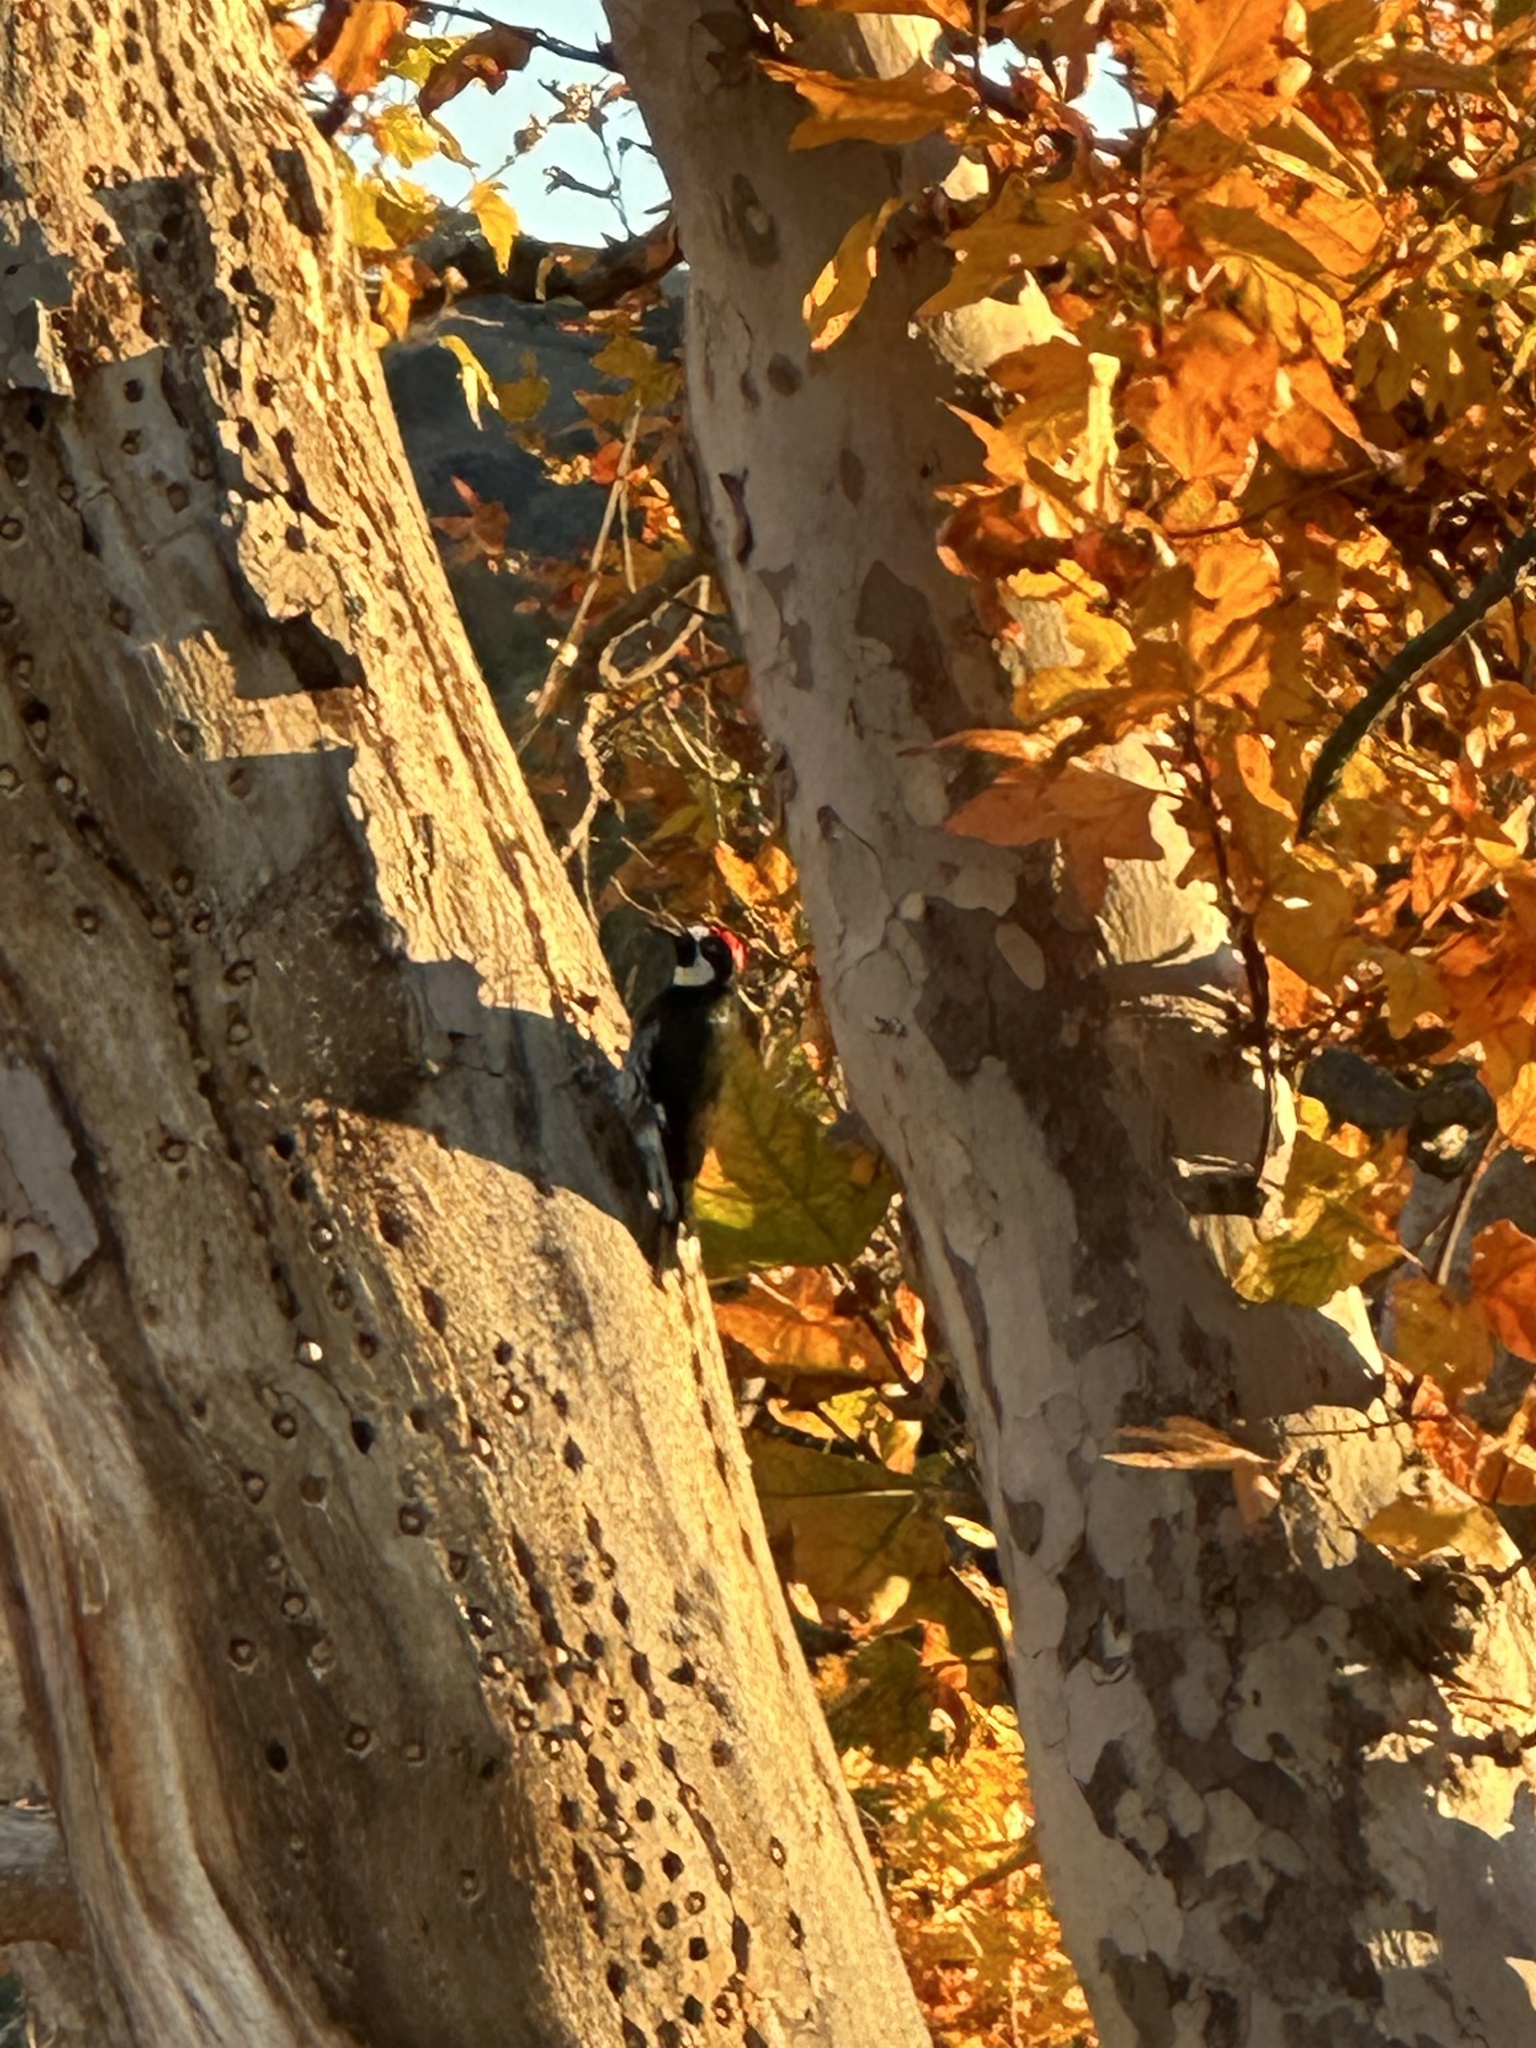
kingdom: Animalia
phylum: Chordata
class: Aves
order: Piciformes
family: Picidae
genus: Melanerpes
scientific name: Melanerpes formicivorus
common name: Acorn woodpecker
